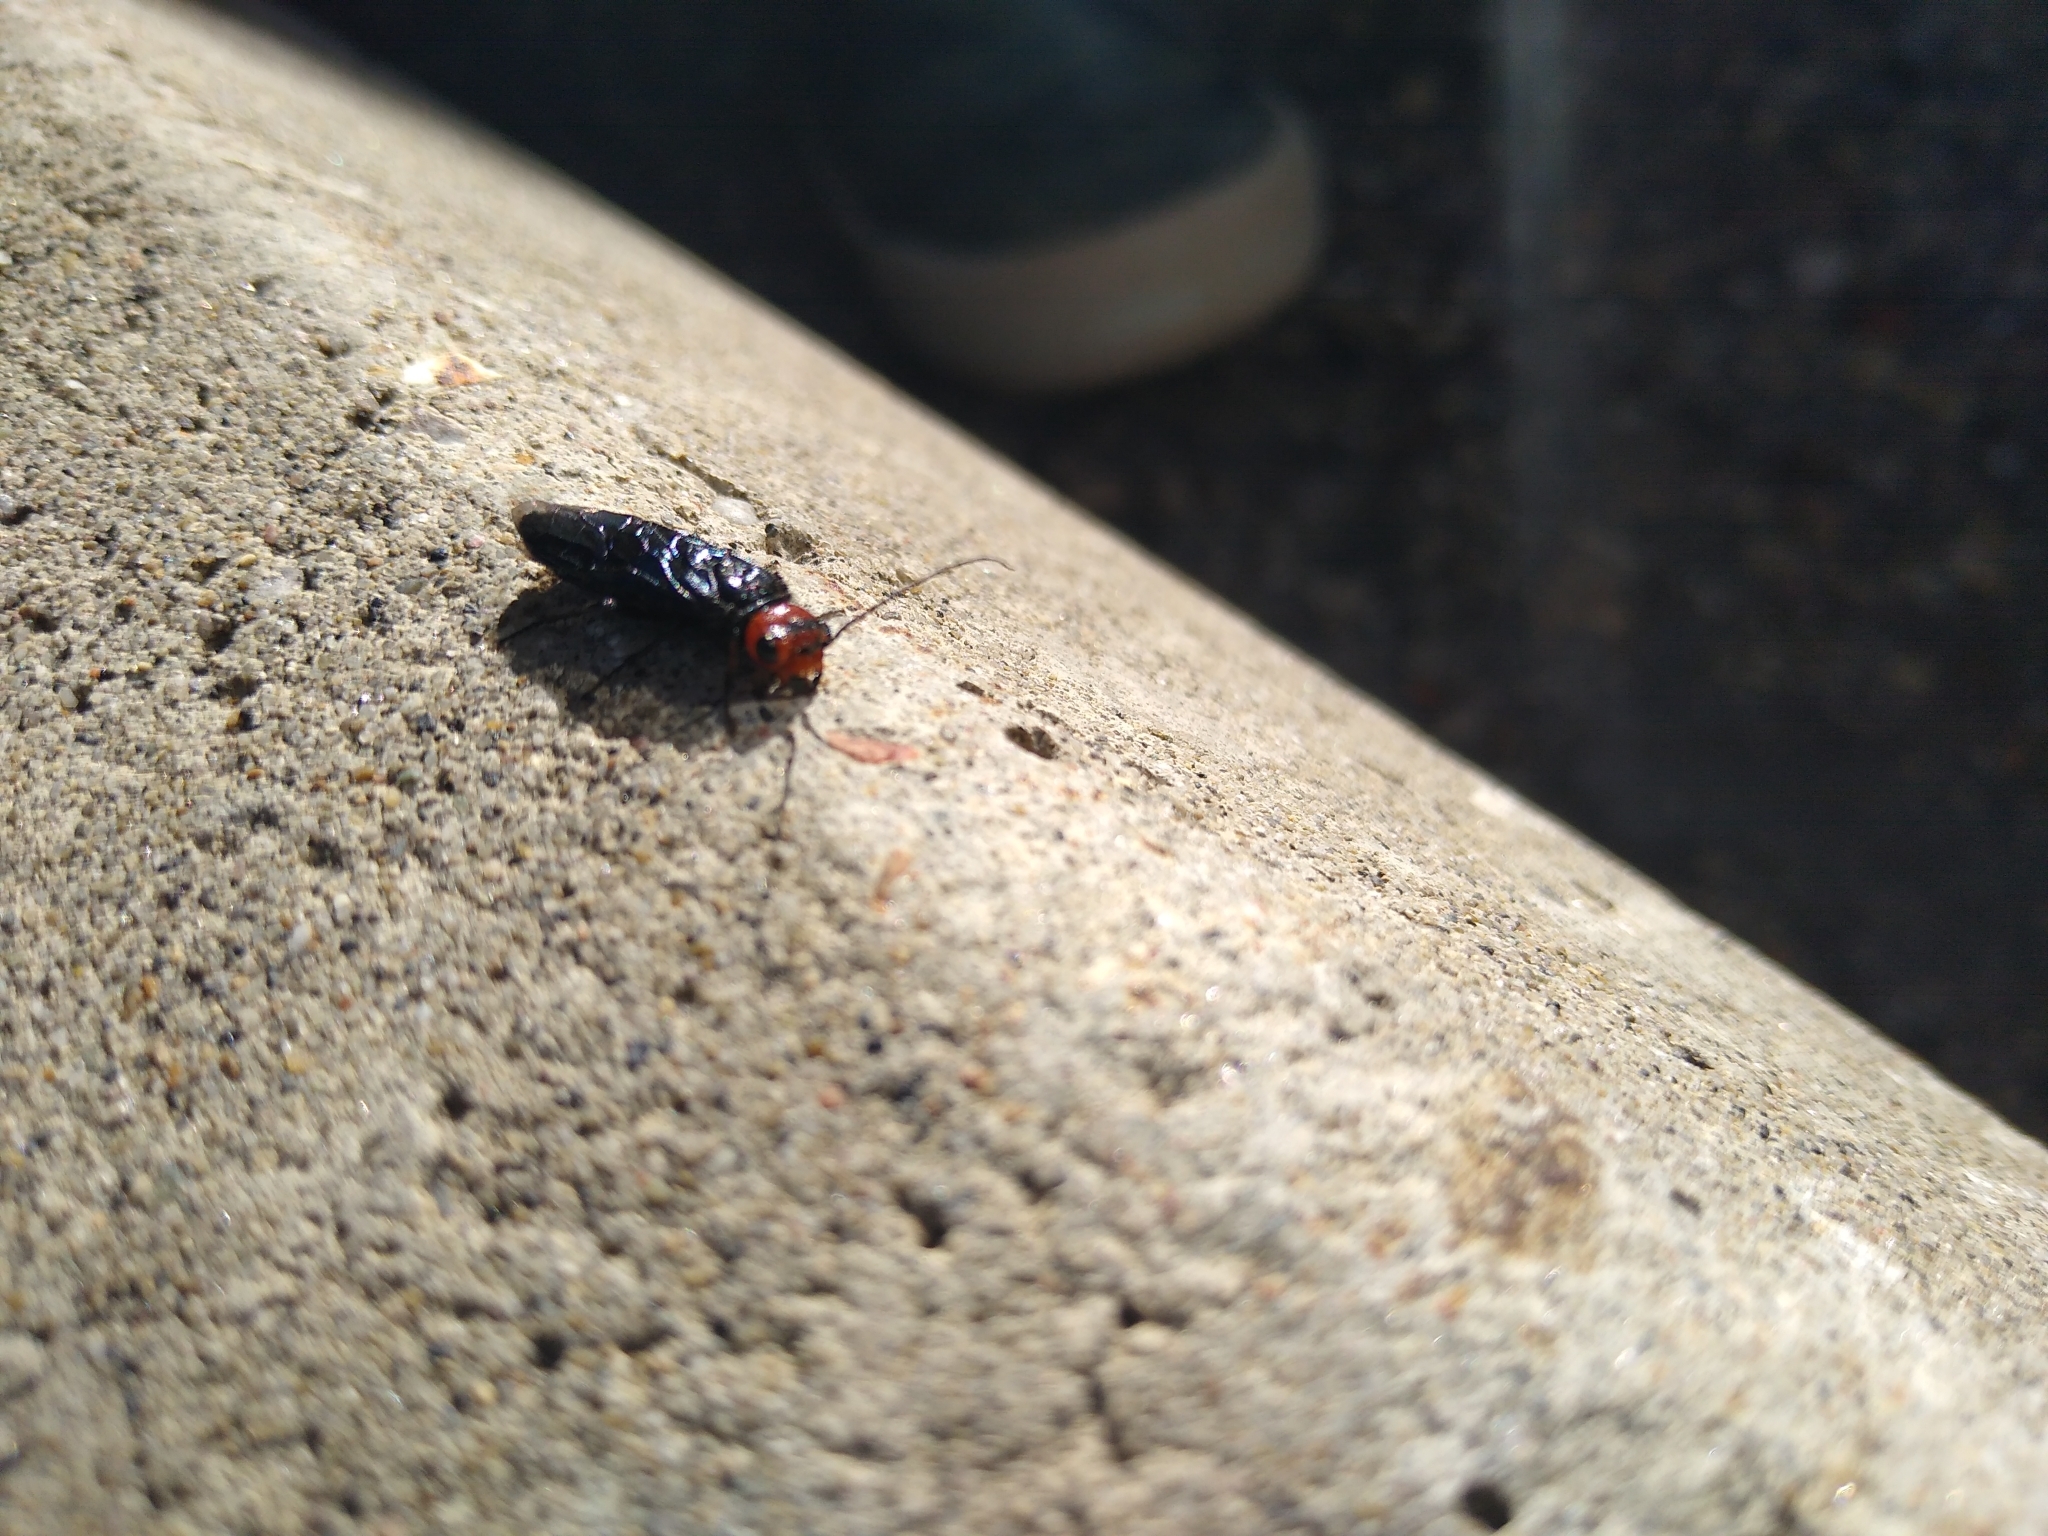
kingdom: Animalia
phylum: Arthropoda
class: Insecta
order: Hymenoptera
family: Pamphiliidae
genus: Acantholyda
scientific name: Acantholyda erythrocephala
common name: Pine false webworm
